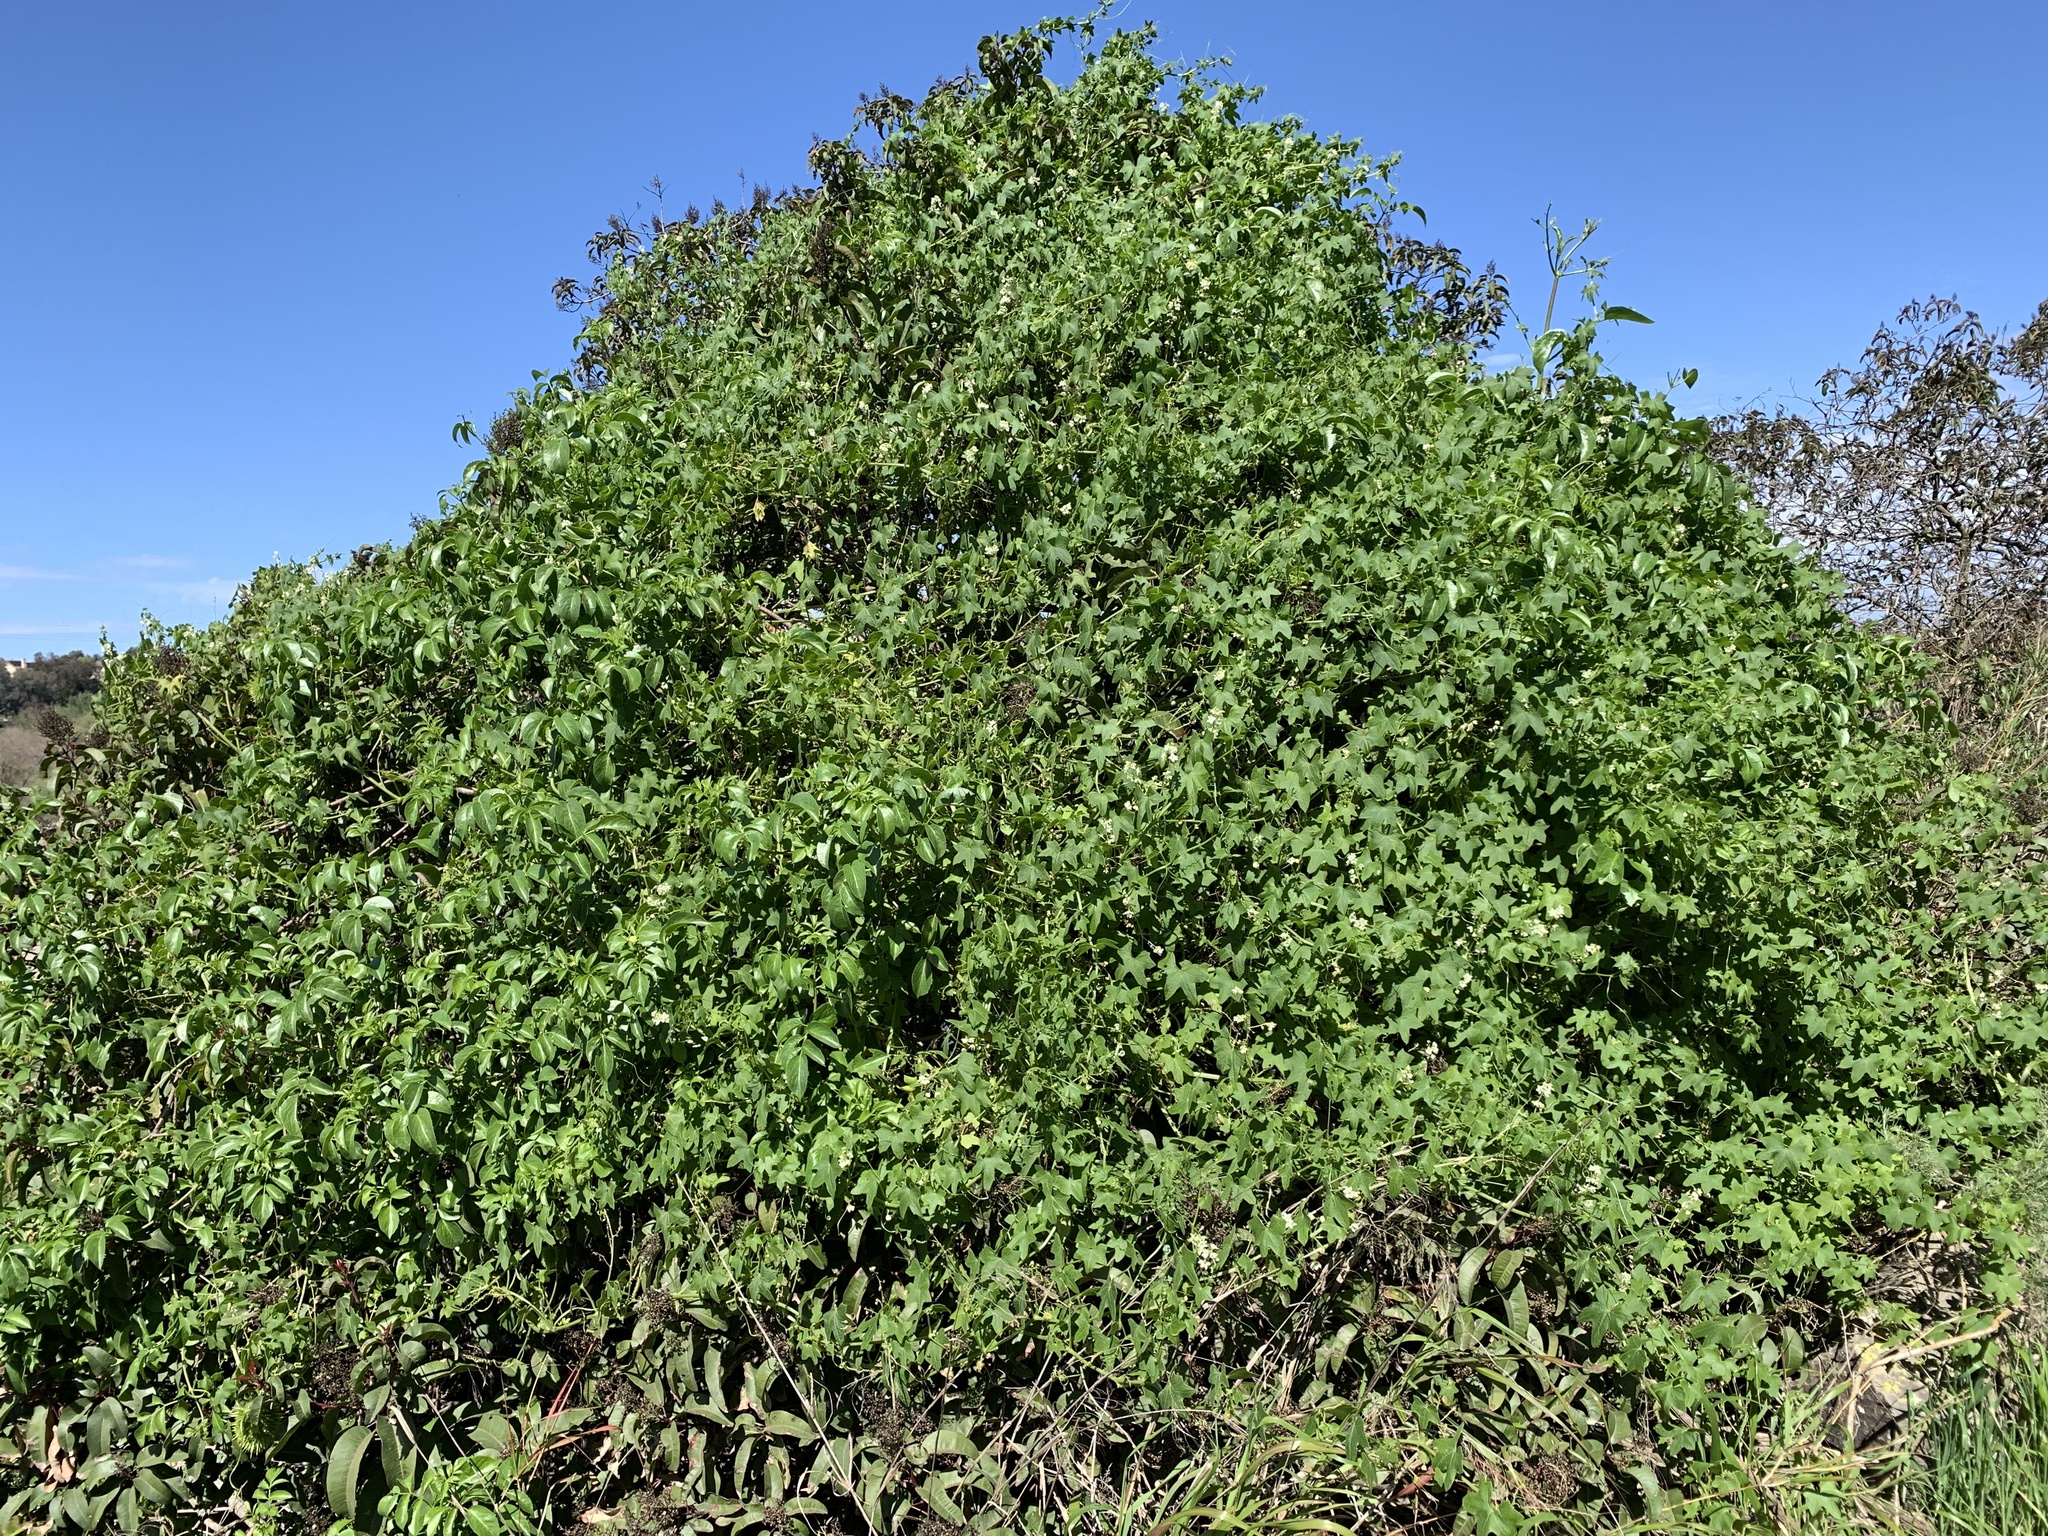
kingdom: Plantae
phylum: Tracheophyta
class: Magnoliopsida
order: Cucurbitales
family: Cucurbitaceae
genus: Marah
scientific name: Marah macrocarpa
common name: Cucamonga manroot
